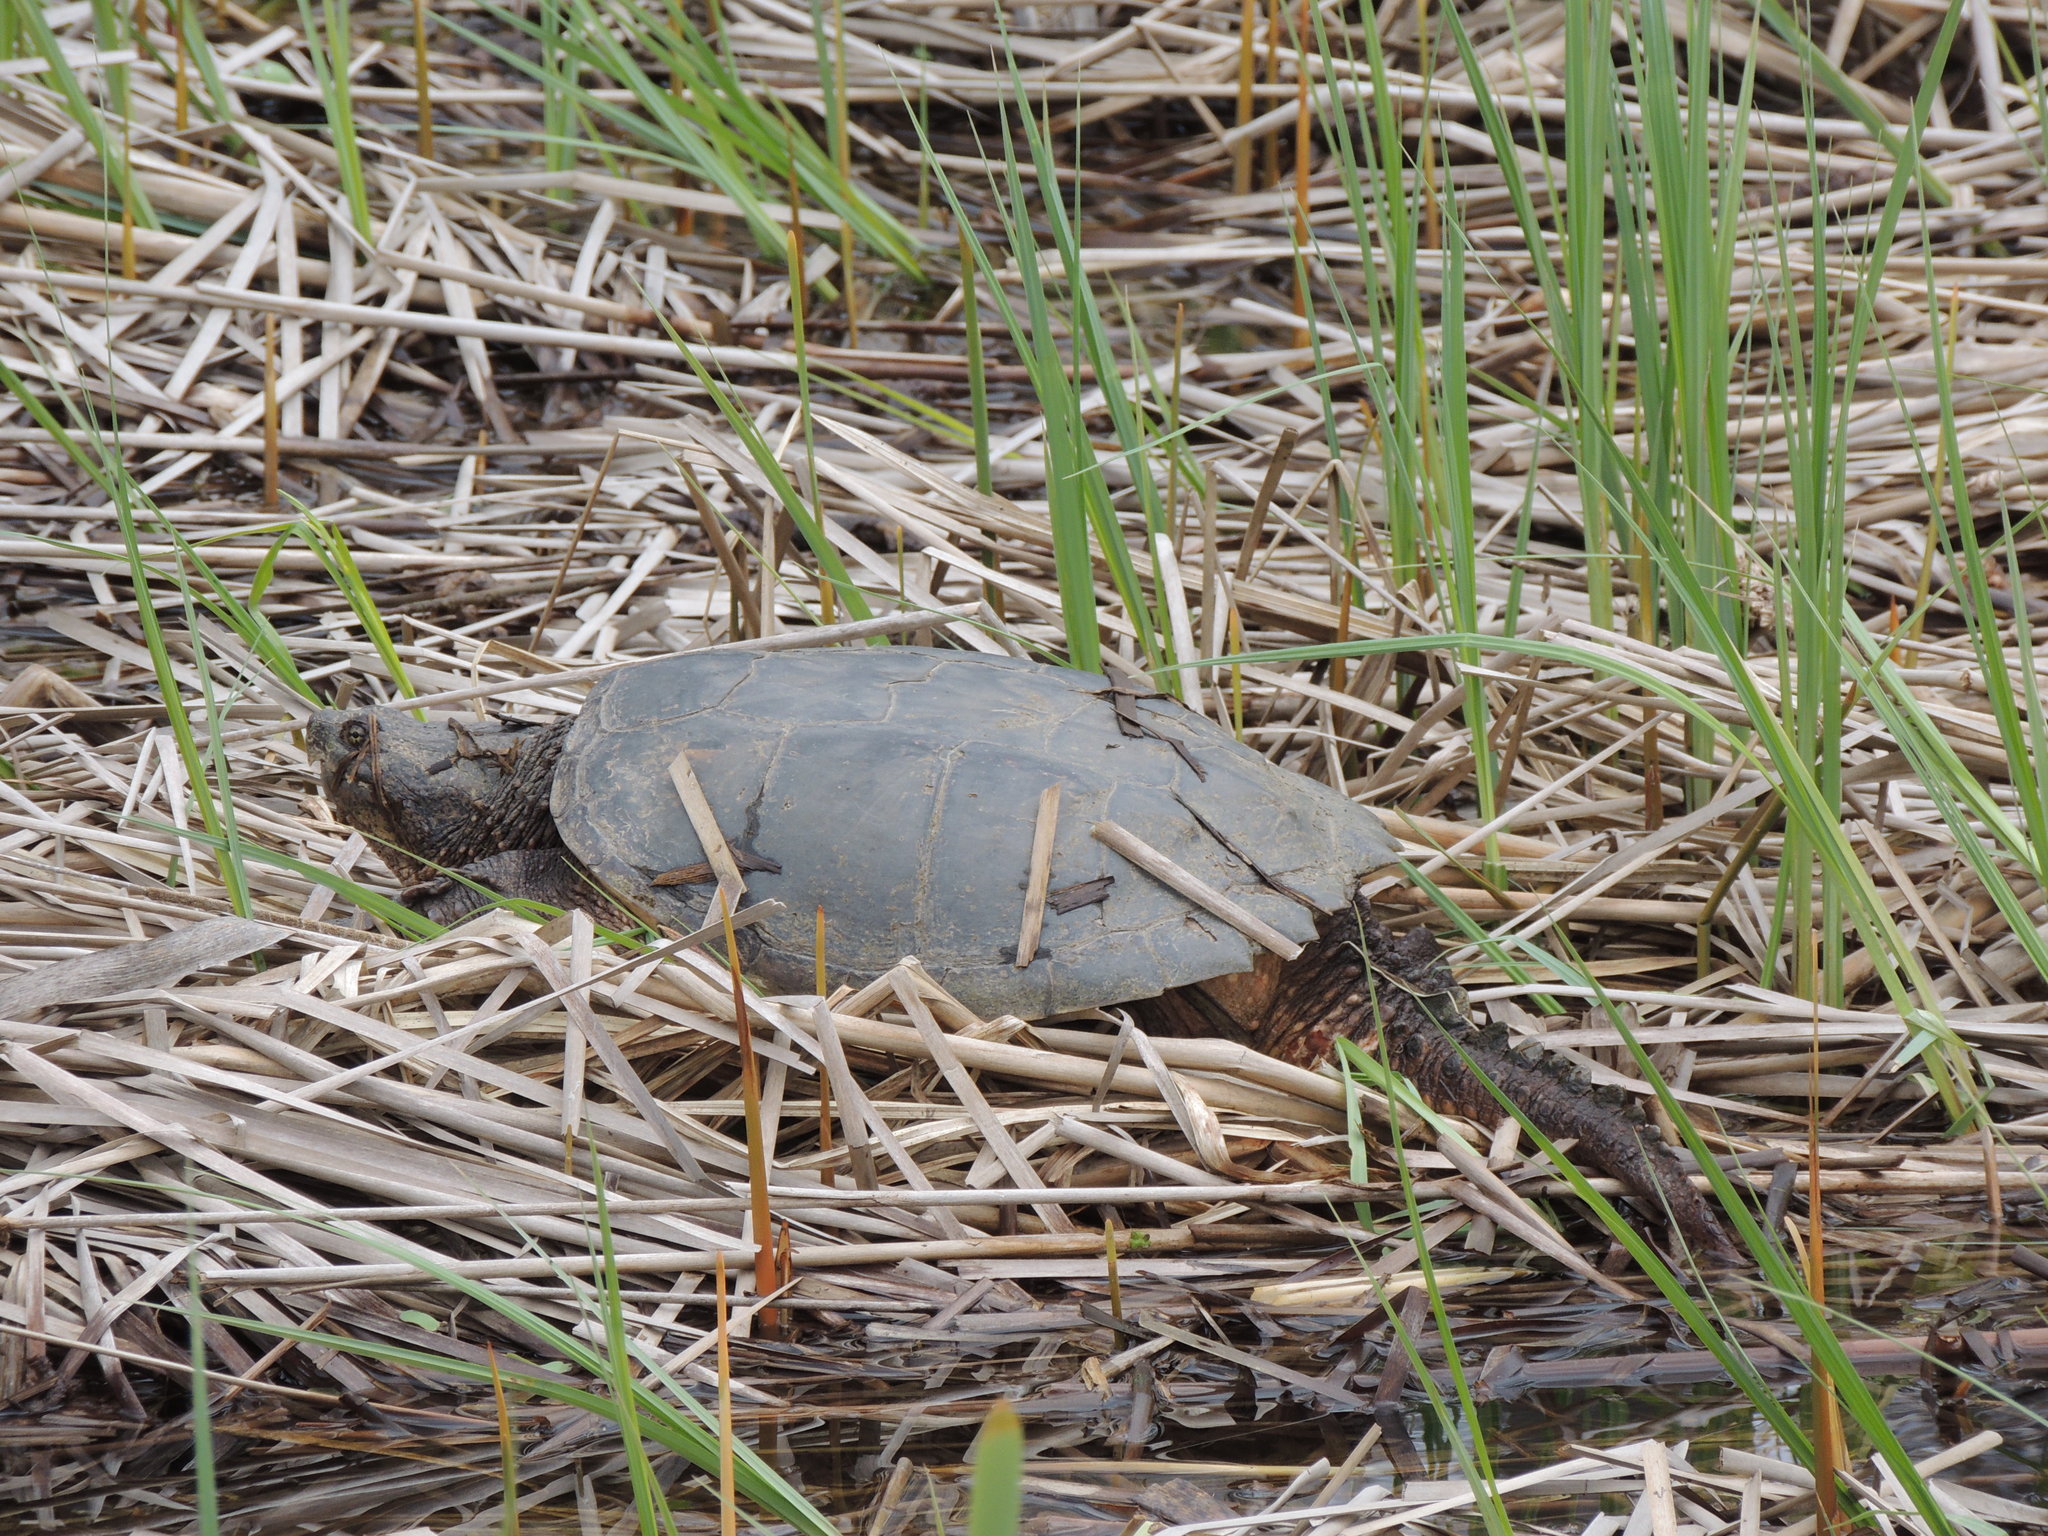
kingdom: Animalia
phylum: Chordata
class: Testudines
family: Chelydridae
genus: Chelydra
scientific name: Chelydra serpentina
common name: Common snapping turtle
